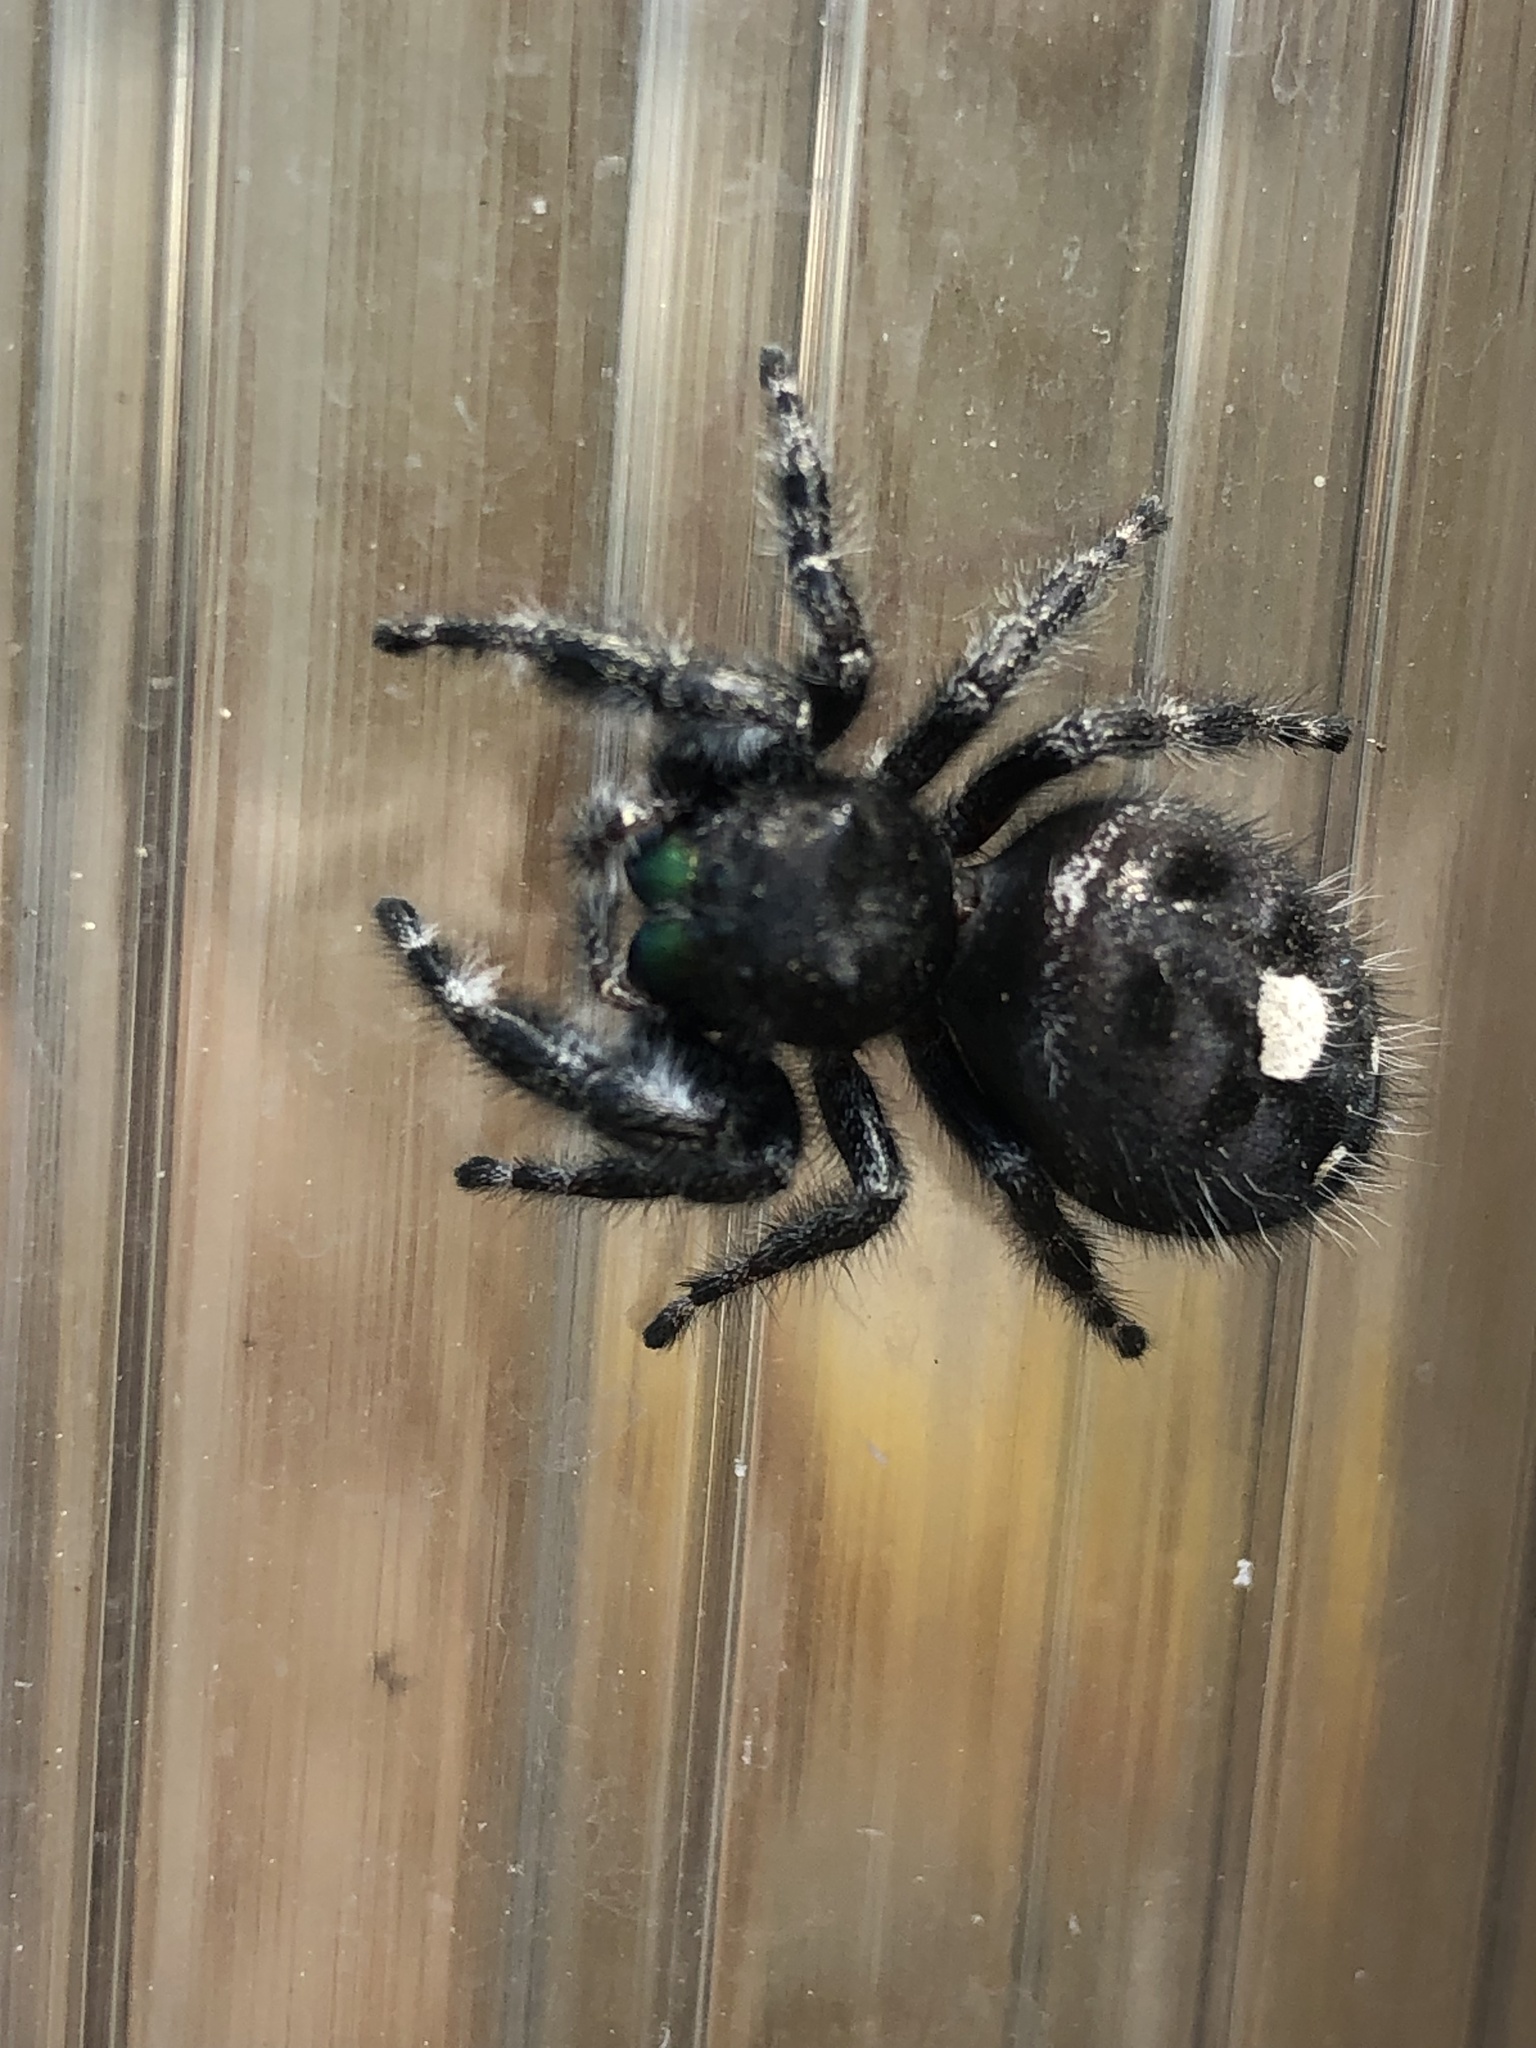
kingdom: Animalia
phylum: Arthropoda
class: Arachnida
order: Araneae
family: Salticidae
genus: Phidippus
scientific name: Phidippus audax
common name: Bold jumper
